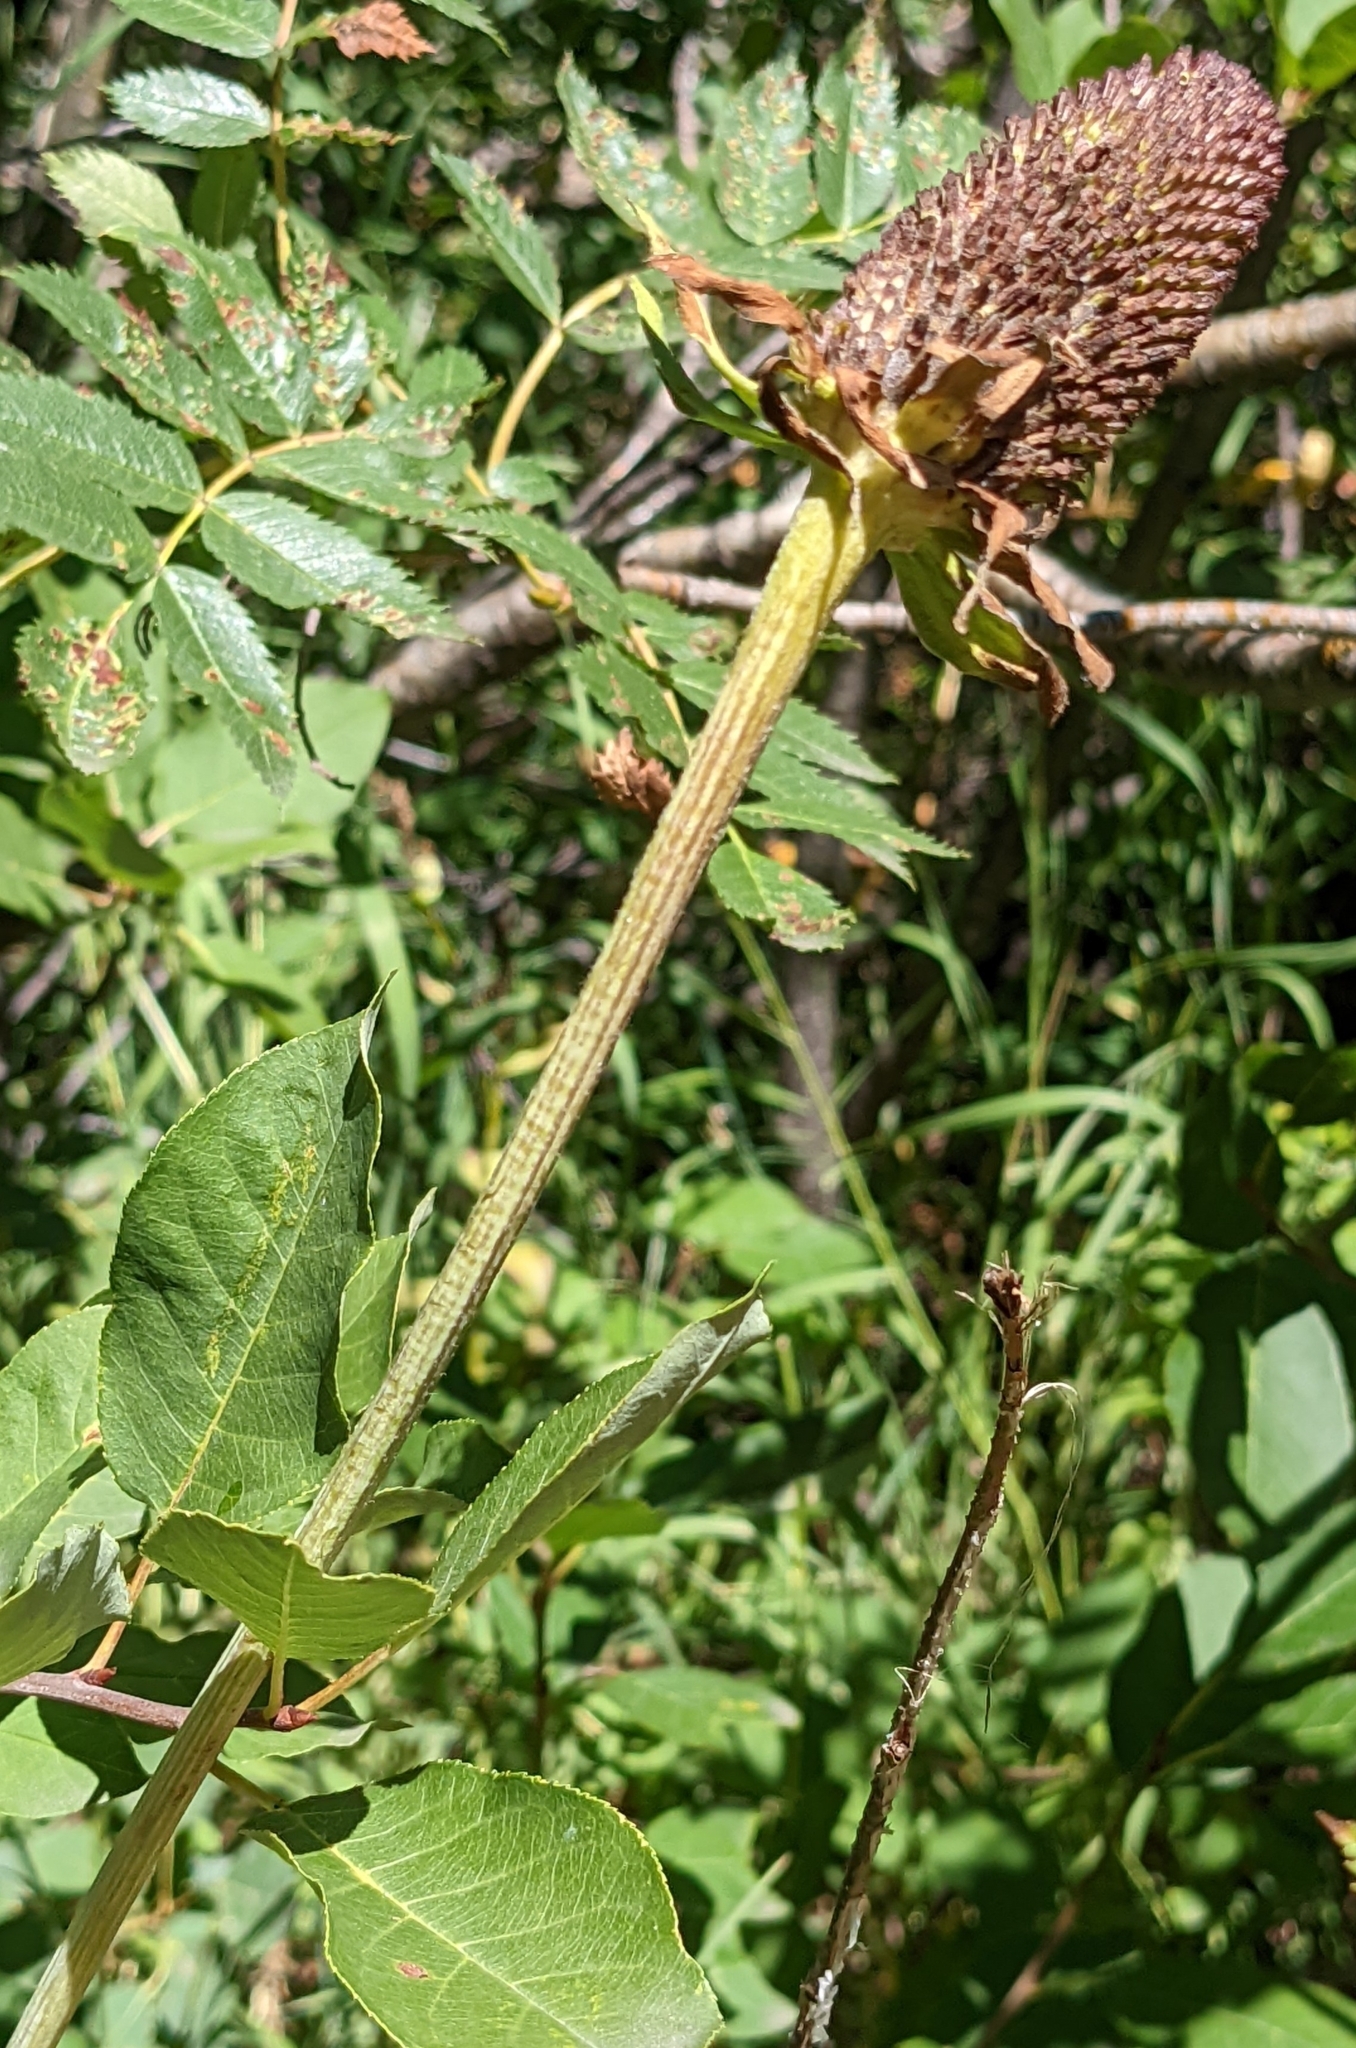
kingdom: Plantae
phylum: Tracheophyta
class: Magnoliopsida
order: Asterales
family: Asteraceae
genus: Rudbeckia
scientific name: Rudbeckia occidentalis
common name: Western coneflower
